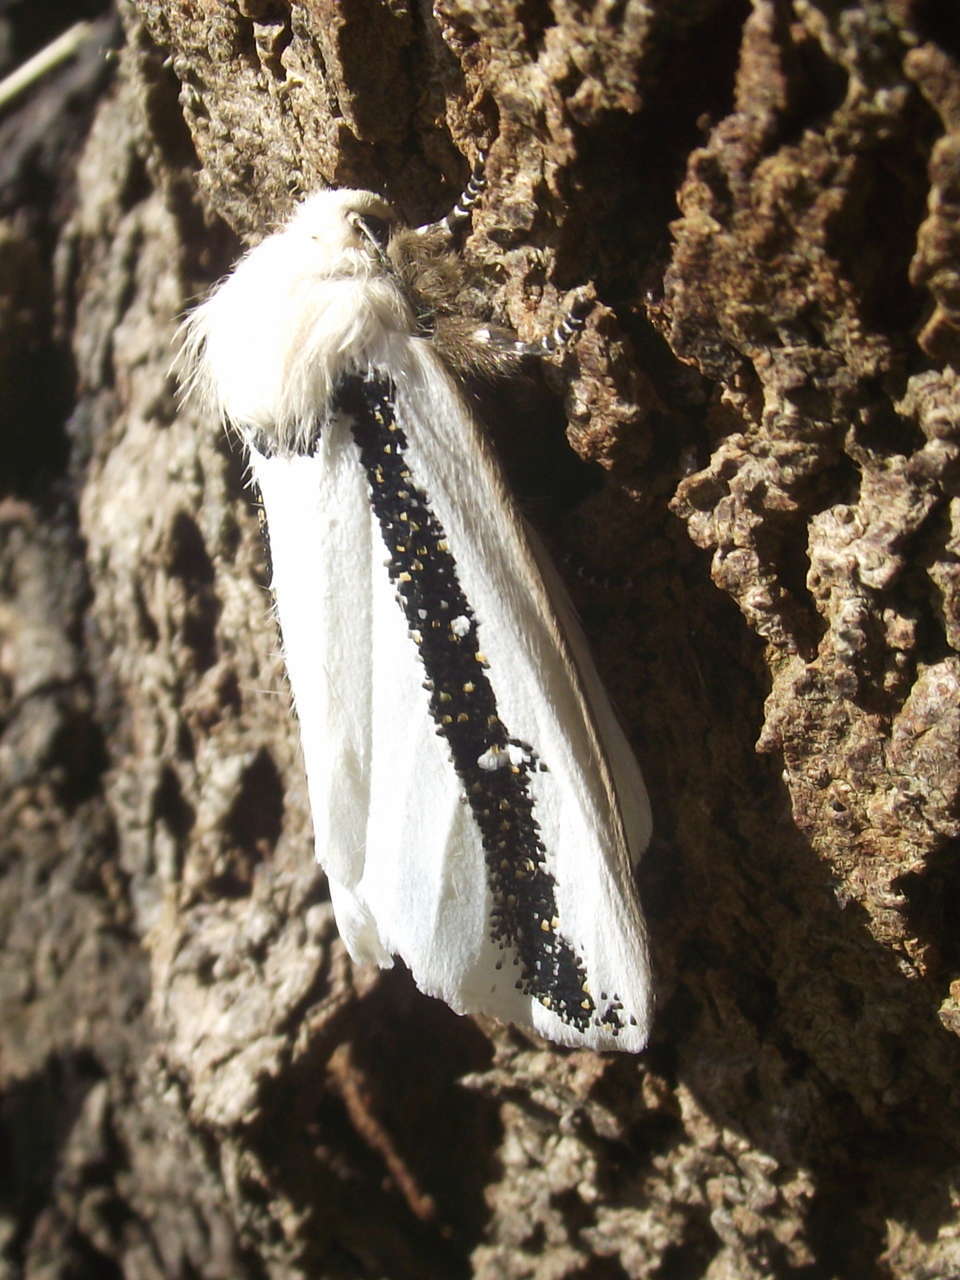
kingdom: Animalia
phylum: Arthropoda
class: Insecta
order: Lepidoptera
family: Oenosandridae
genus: Oenosandra
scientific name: Oenosandra boisduvalii
